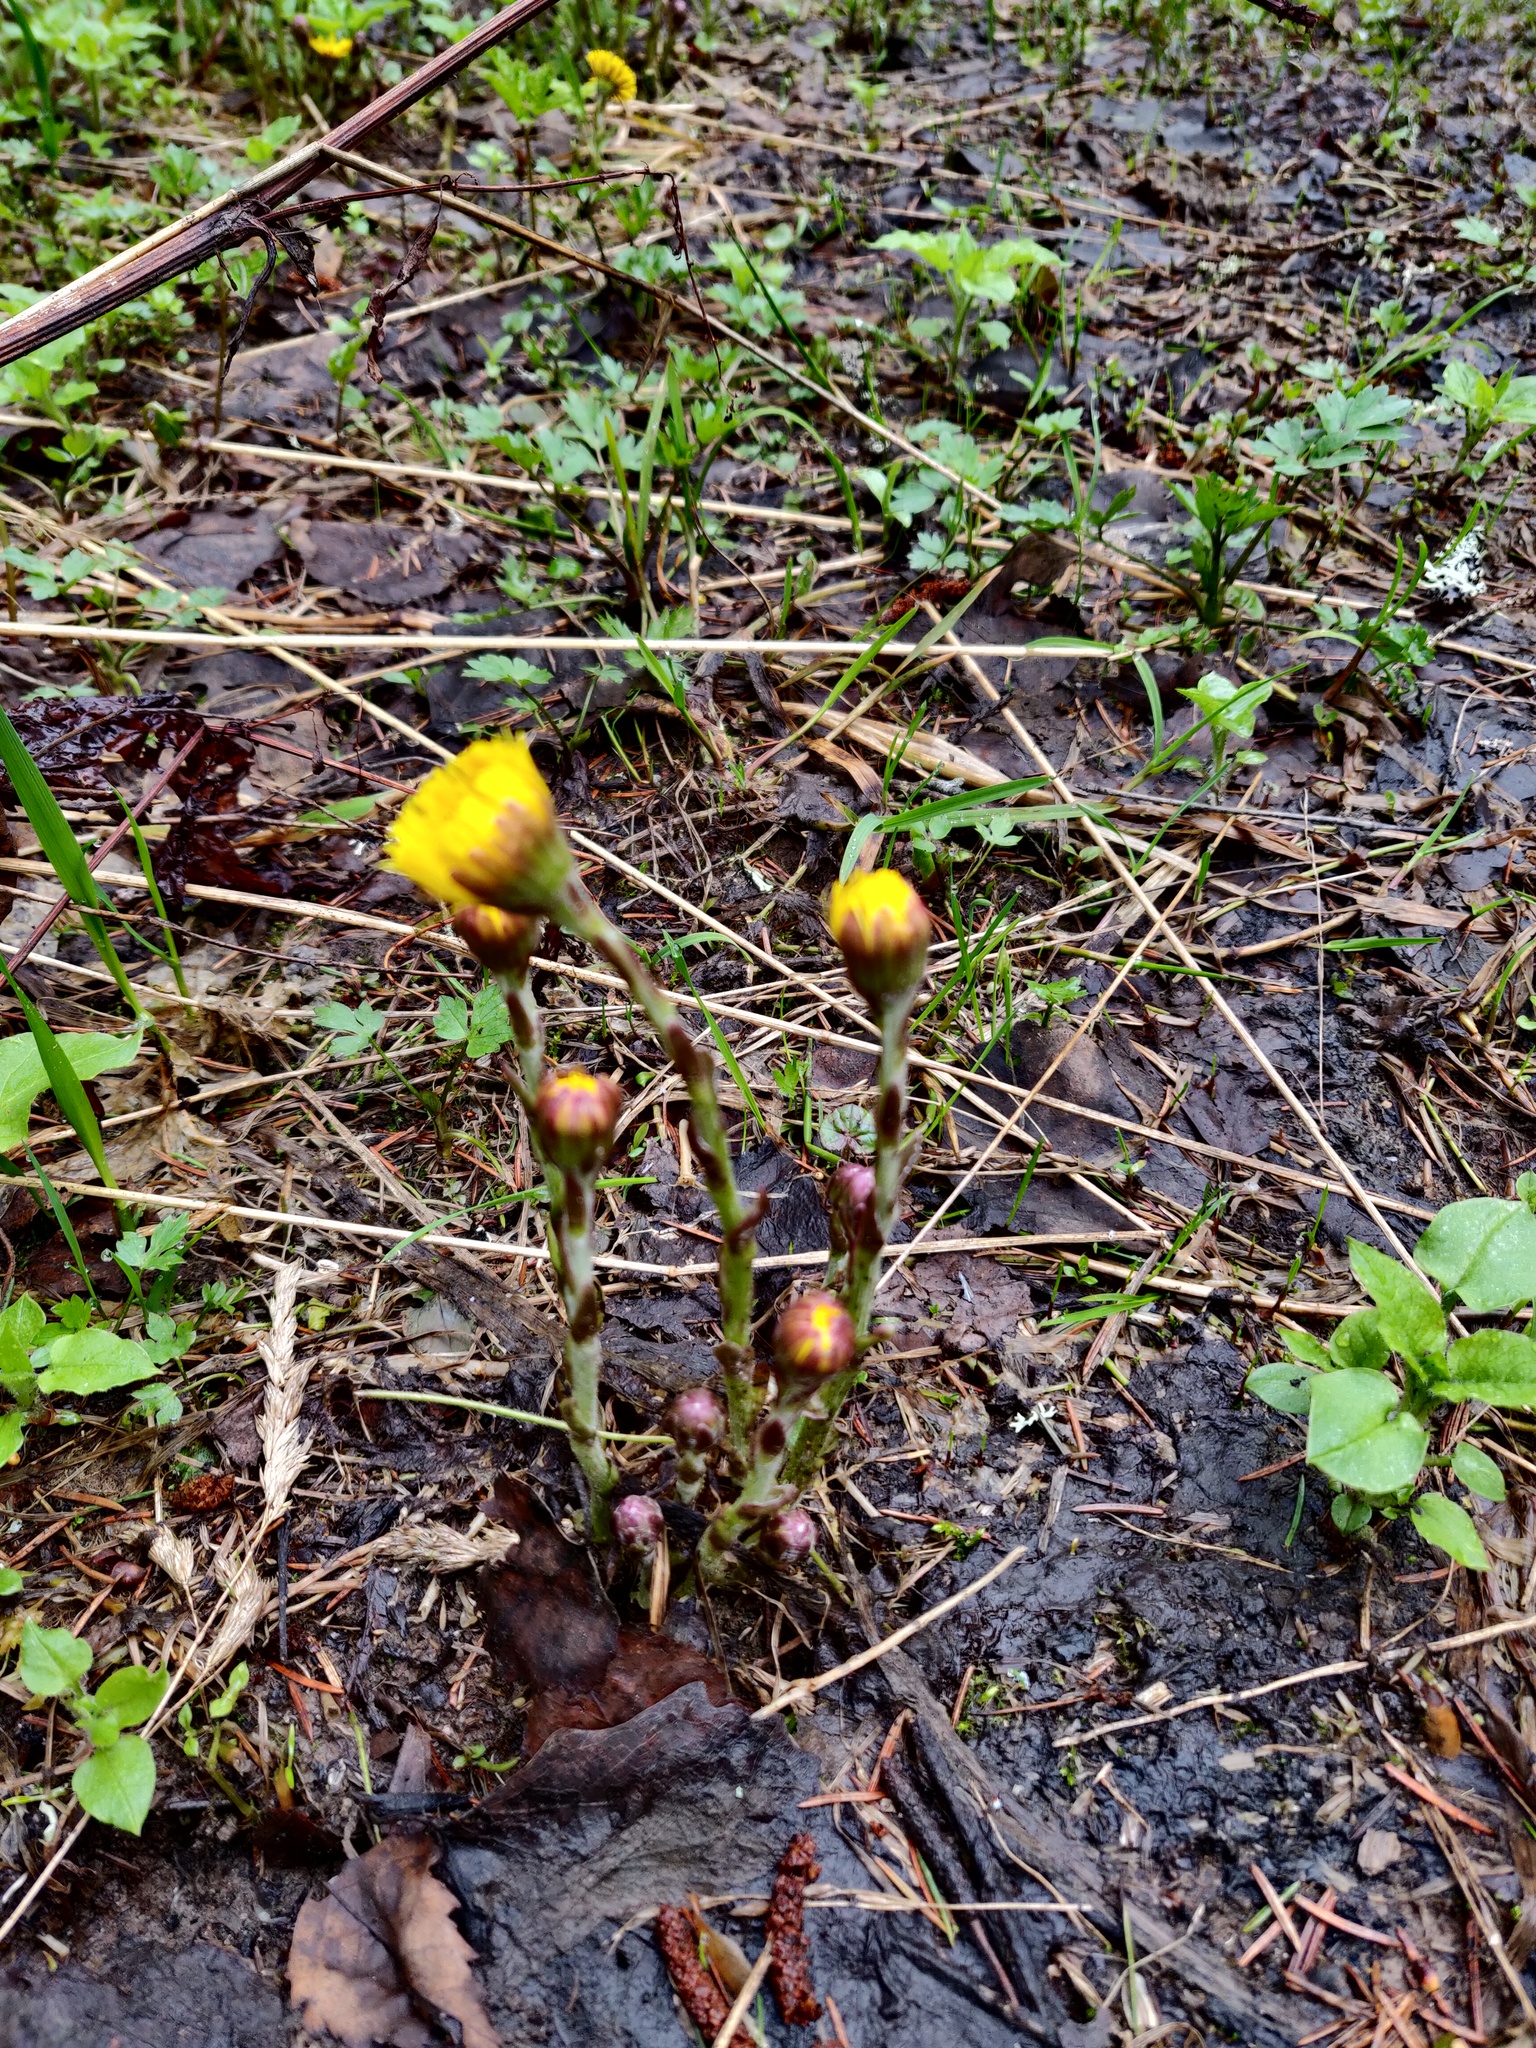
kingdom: Plantae
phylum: Tracheophyta
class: Magnoliopsida
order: Asterales
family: Asteraceae
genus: Tussilago
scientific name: Tussilago farfara
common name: Coltsfoot
